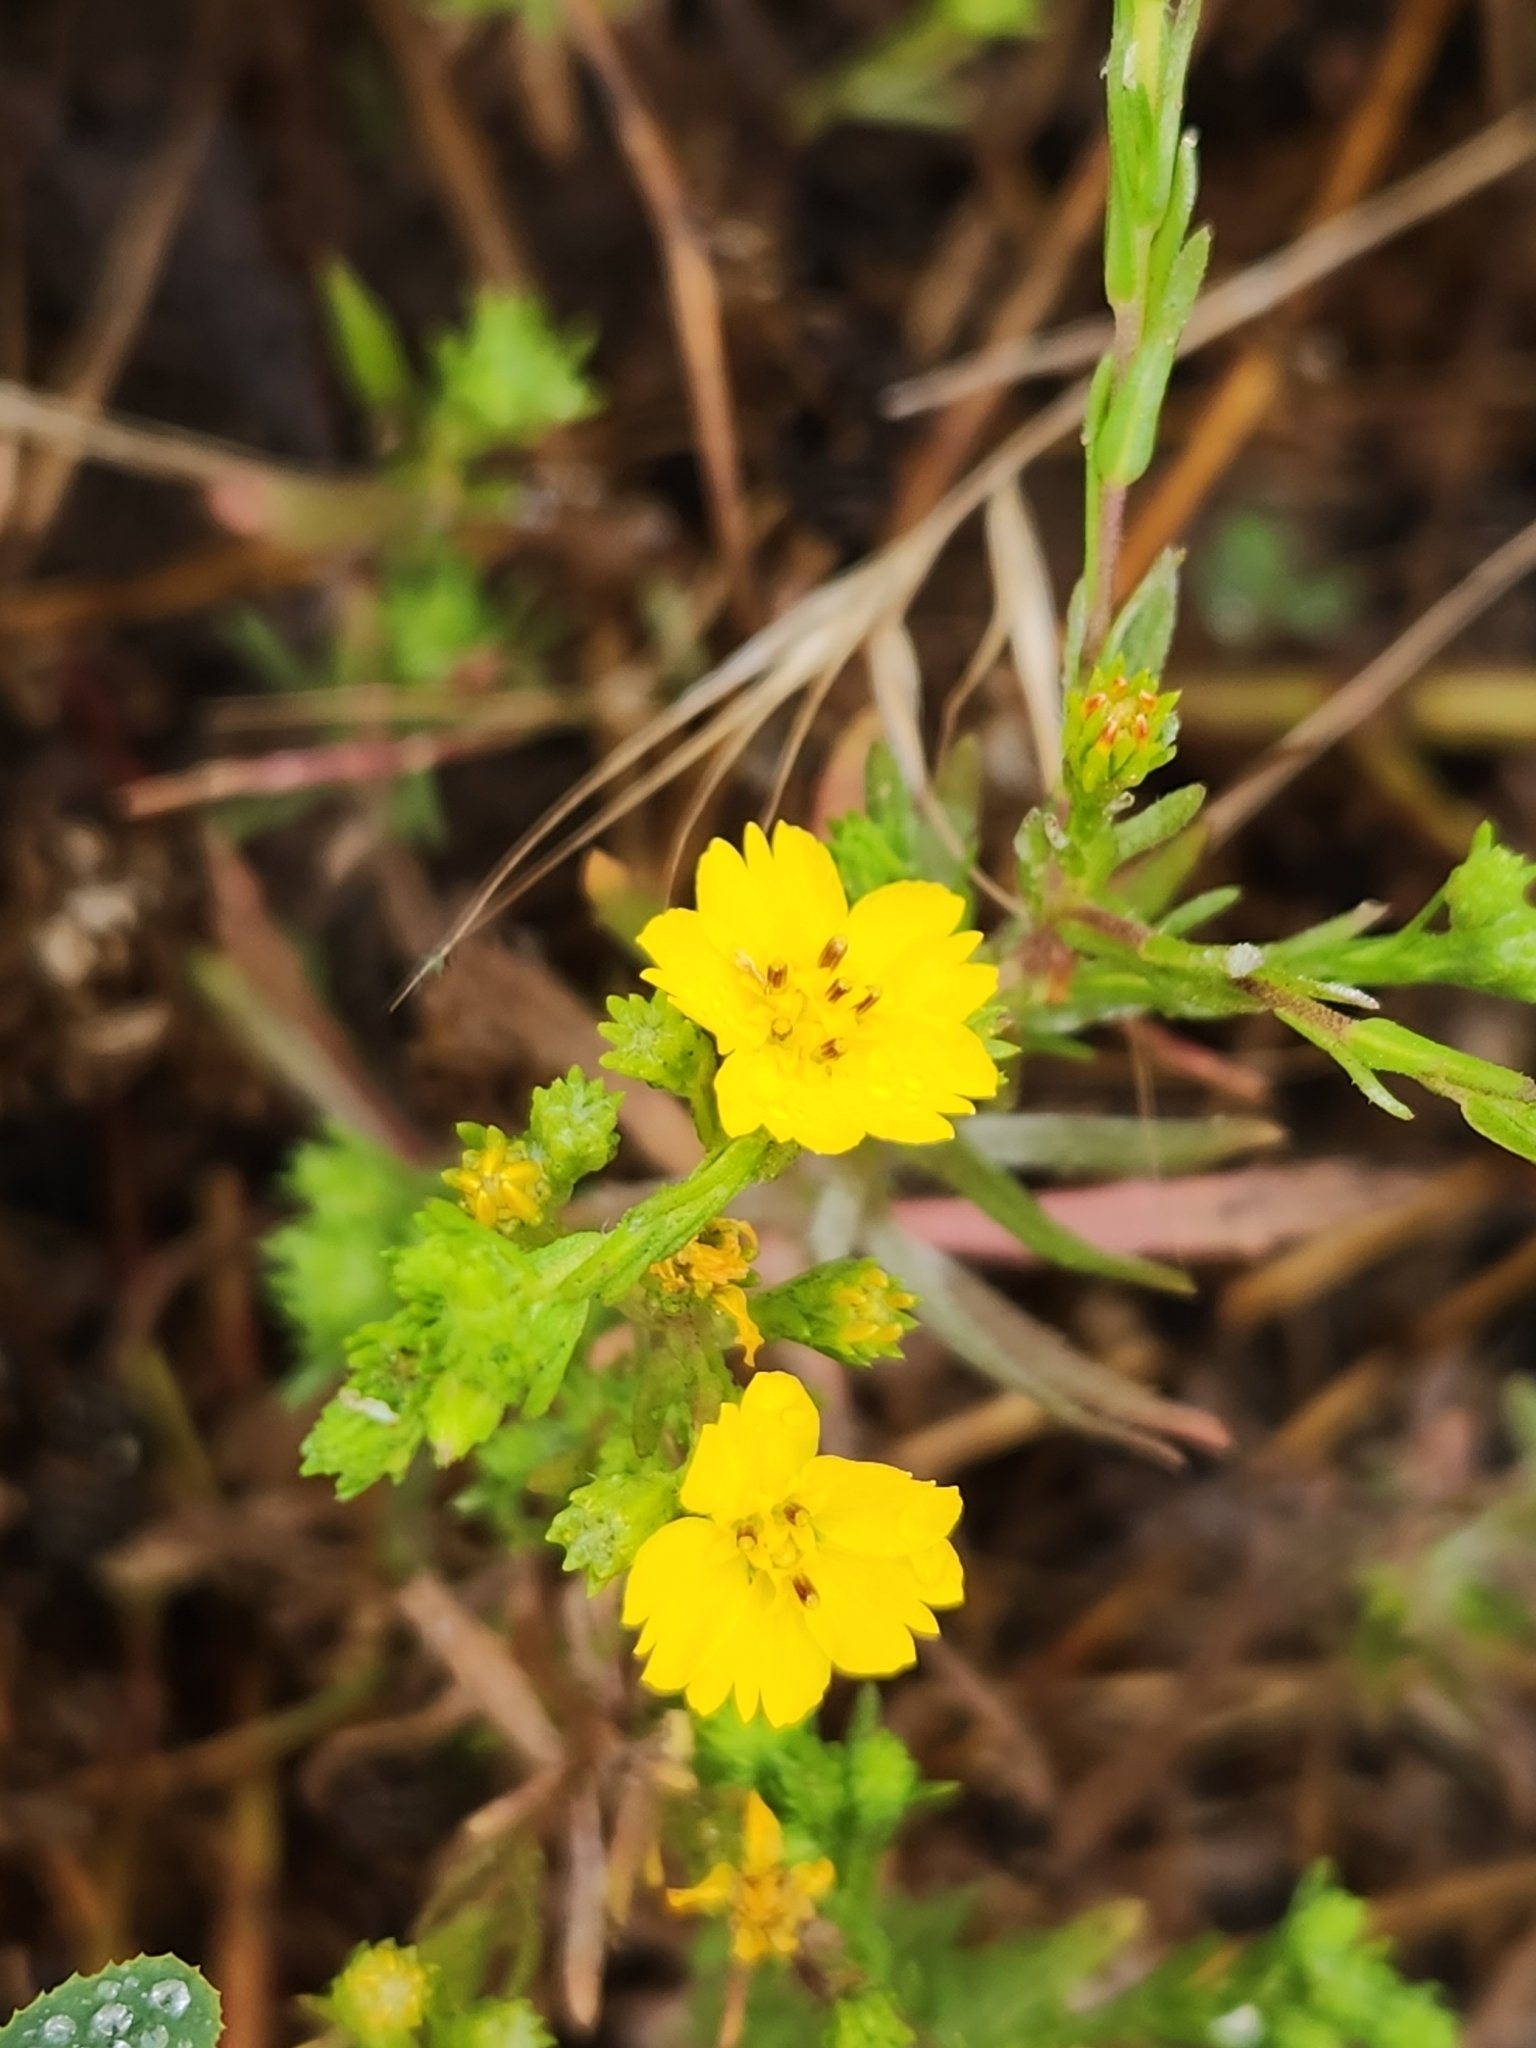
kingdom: Plantae
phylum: Tracheophyta
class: Magnoliopsida
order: Asterales
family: Asteraceae
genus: Deinandra
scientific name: Deinandra fasciculata
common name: Clustered tarweed
